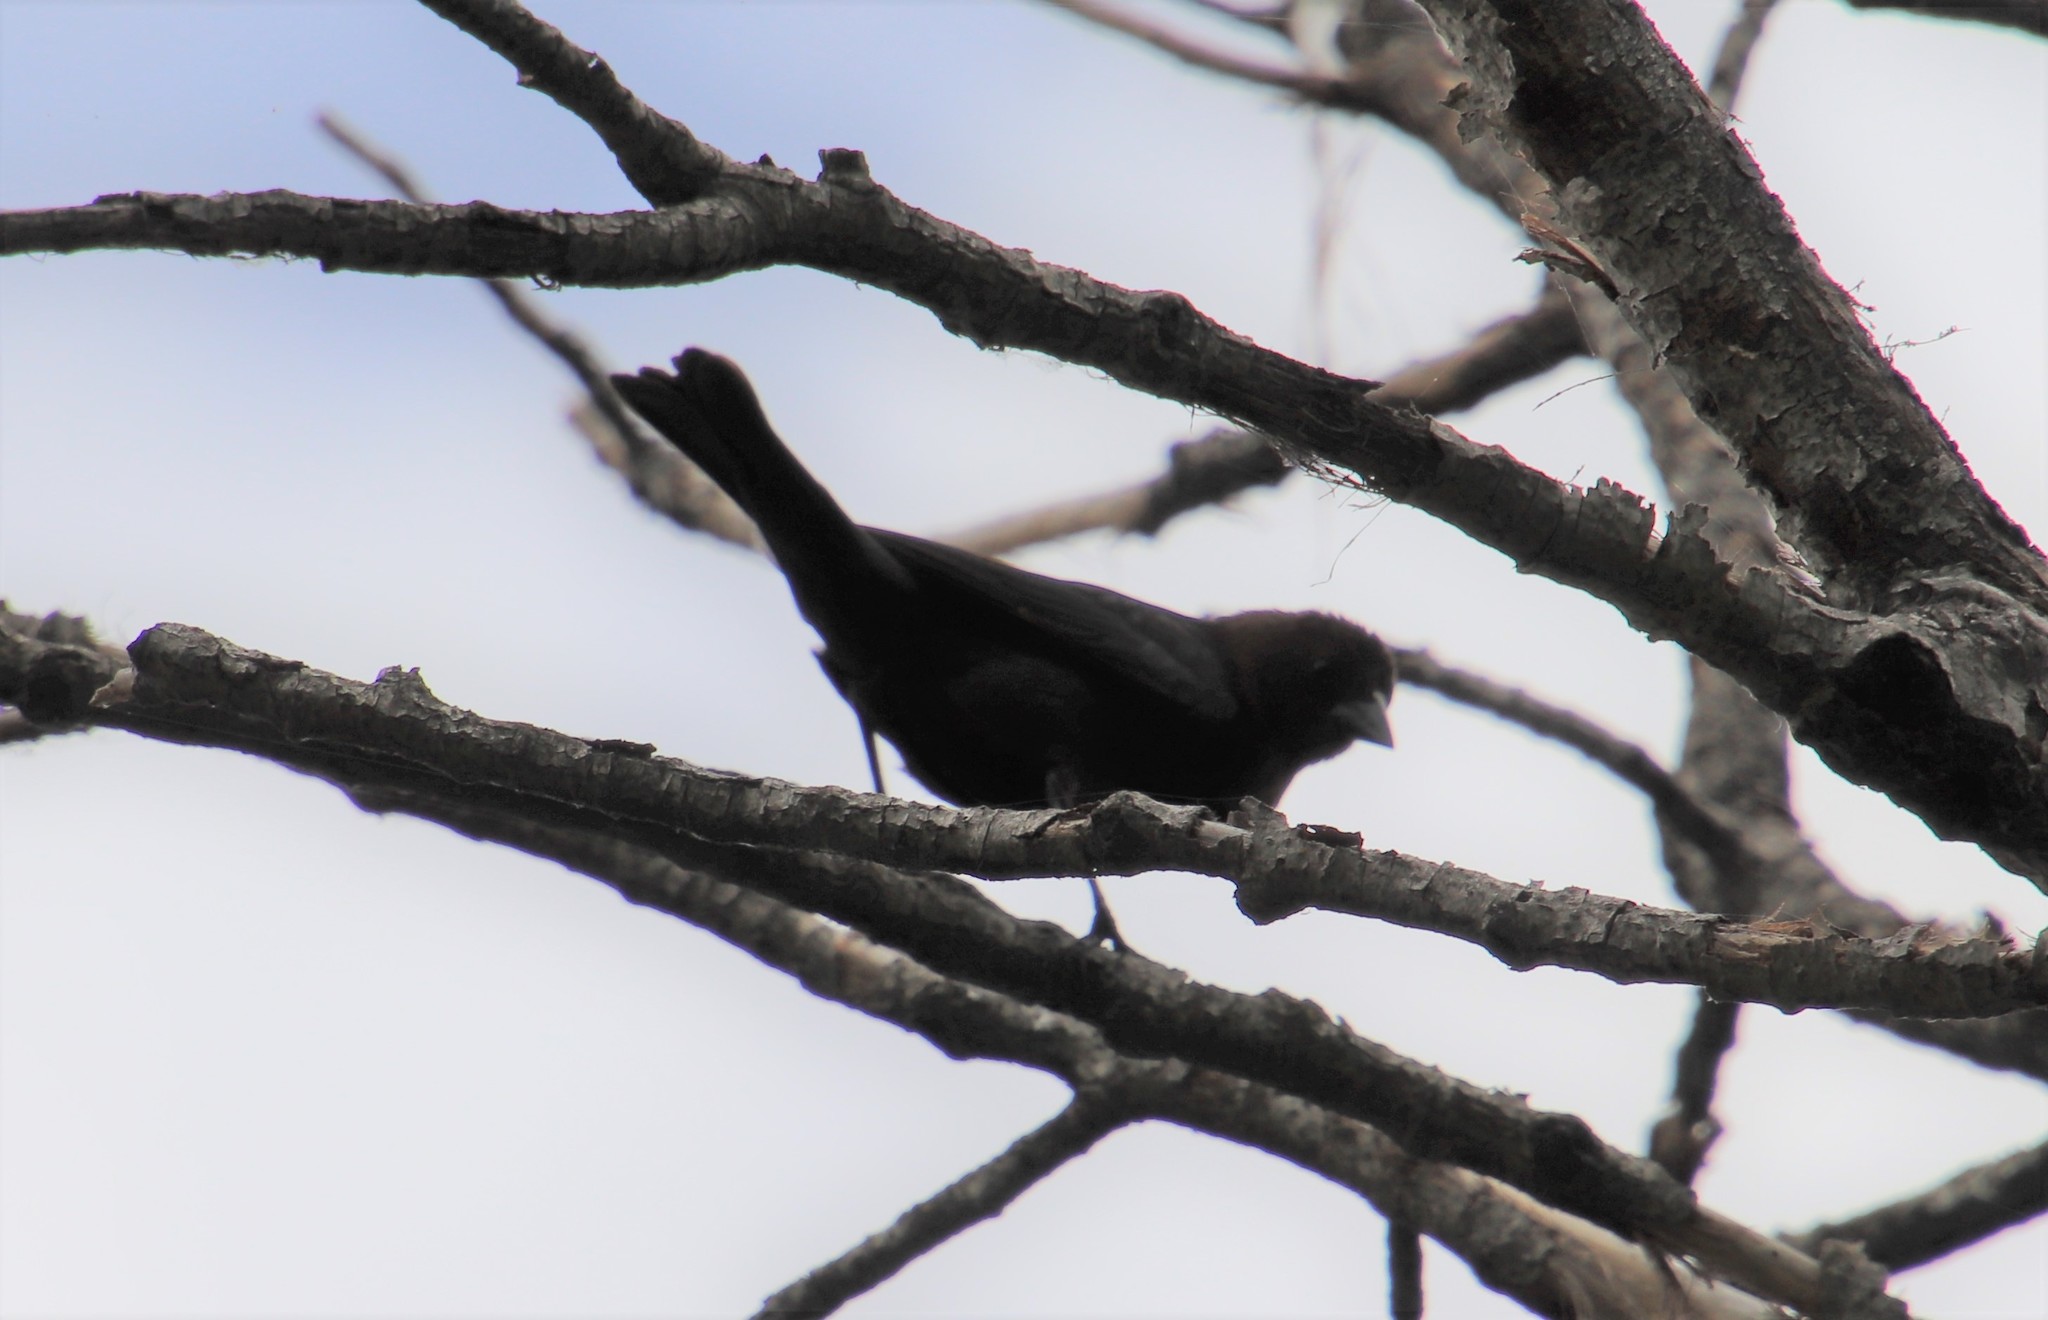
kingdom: Animalia
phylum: Chordata
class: Aves
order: Passeriformes
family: Icteridae
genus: Molothrus
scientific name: Molothrus ater
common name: Brown-headed cowbird
